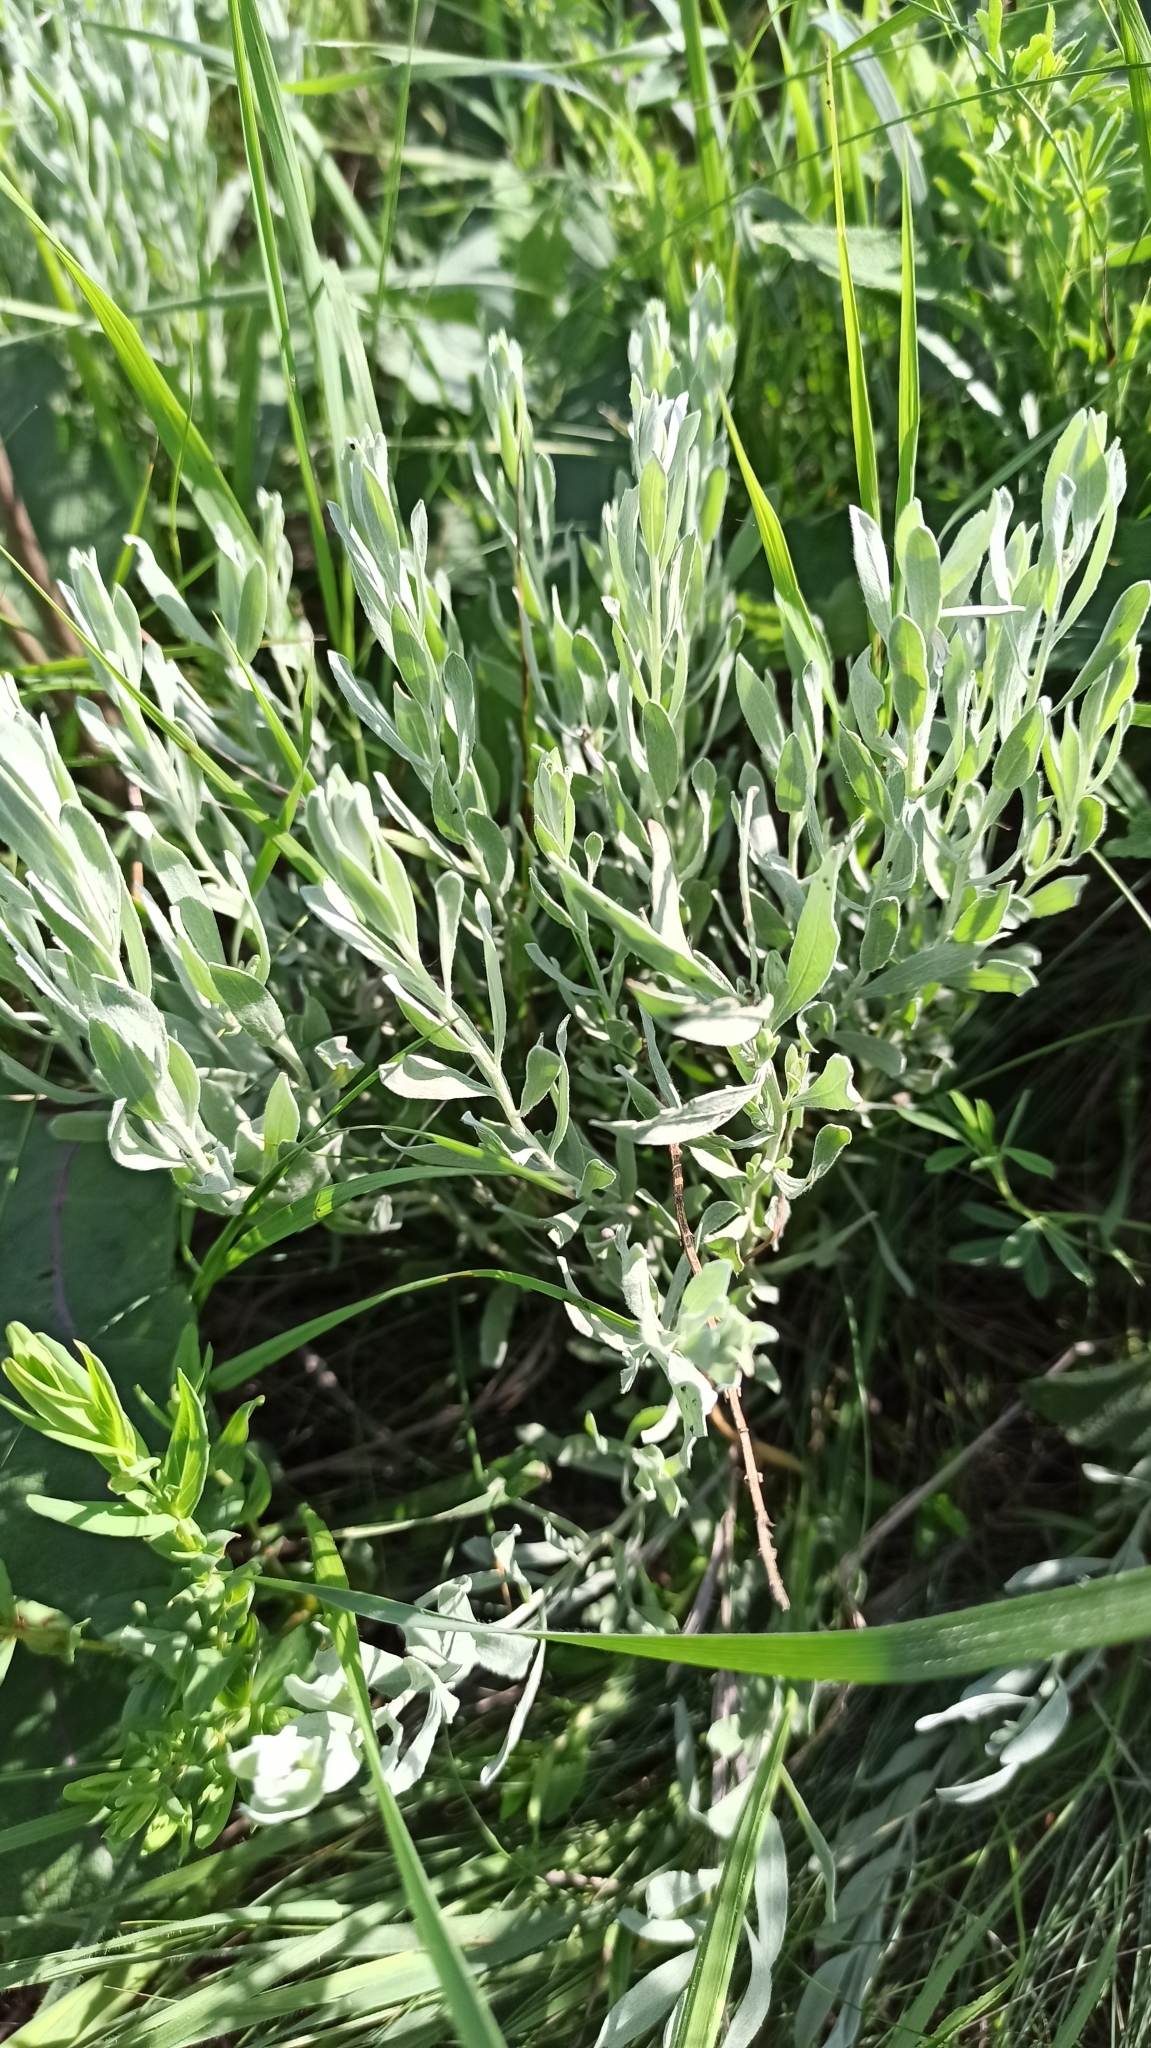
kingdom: Plantae
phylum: Tracheophyta
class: Magnoliopsida
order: Asterales
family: Asteraceae
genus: Galatella
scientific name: Galatella villosa
